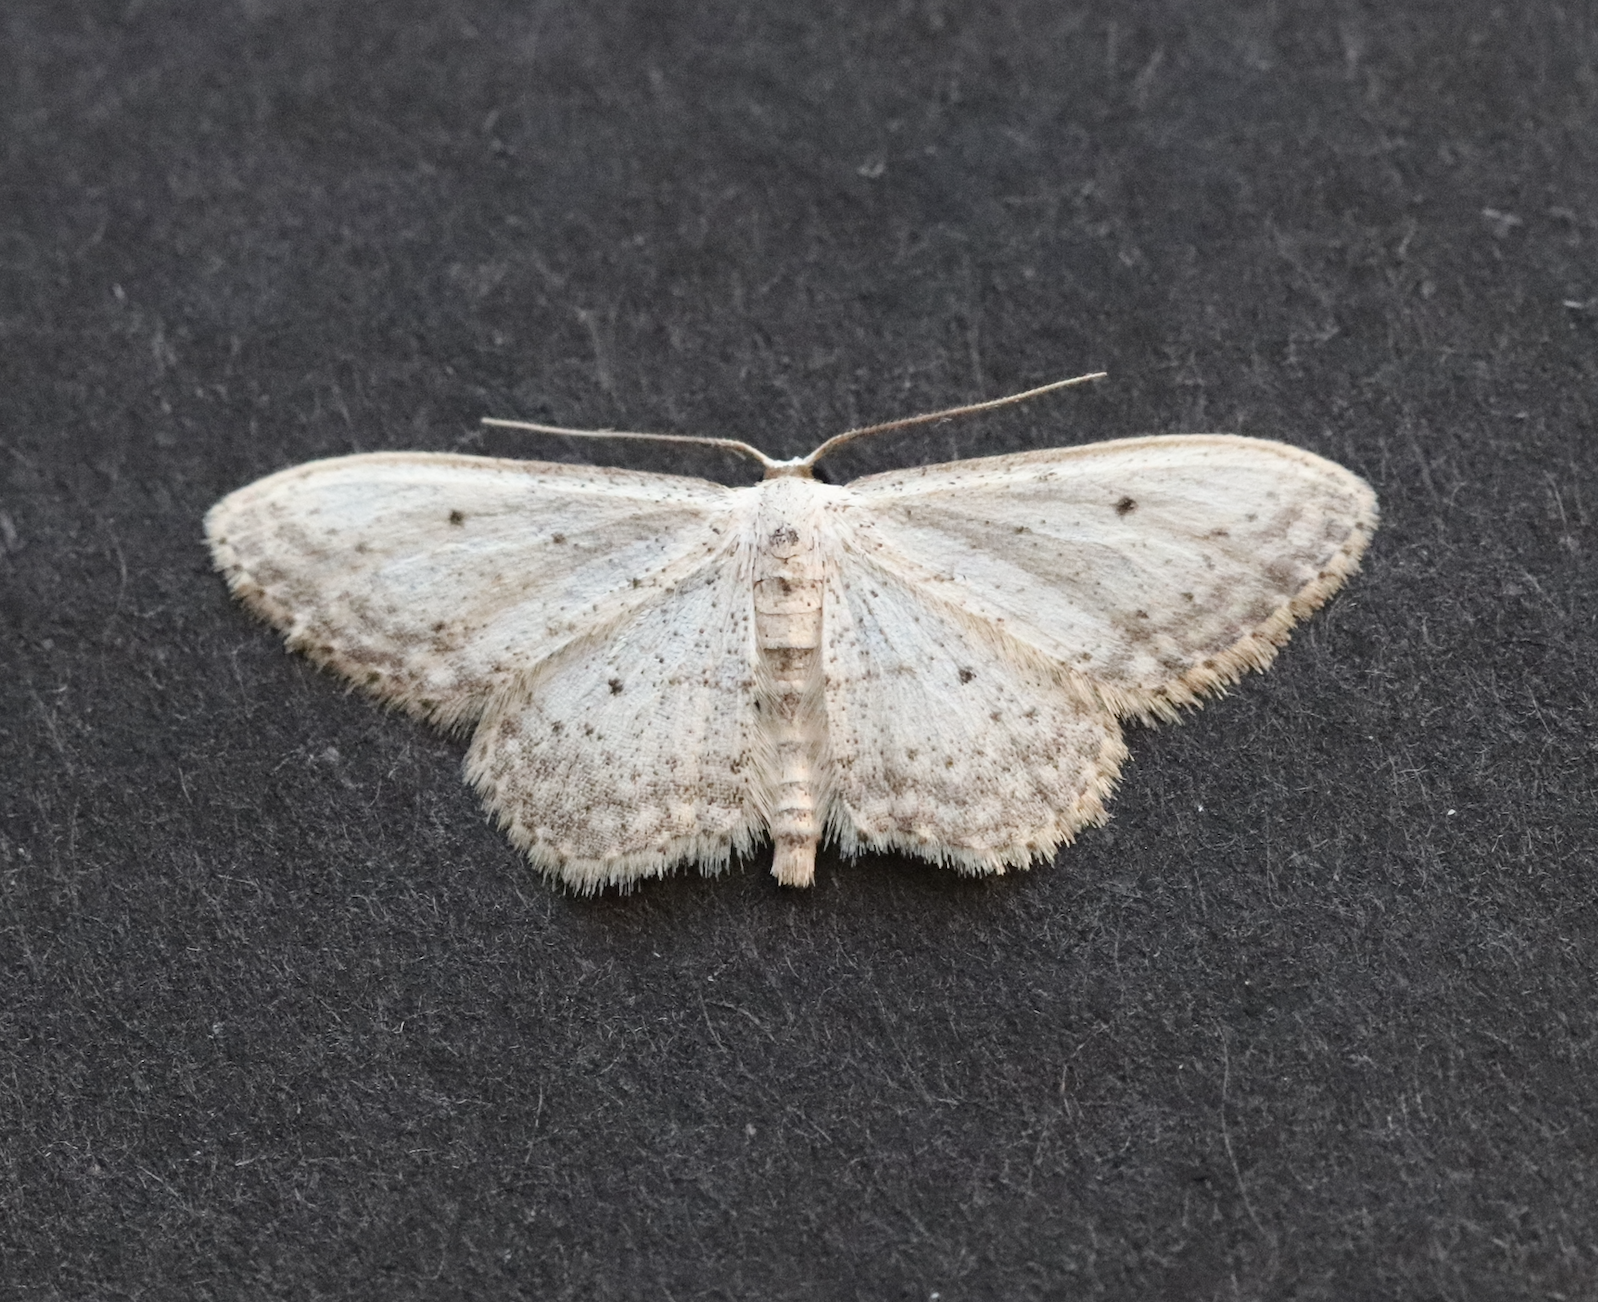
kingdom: Animalia
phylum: Arthropoda
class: Insecta
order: Lepidoptera
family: Geometridae
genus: Idaea
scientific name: Idaea seriata
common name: Small dusty wave
